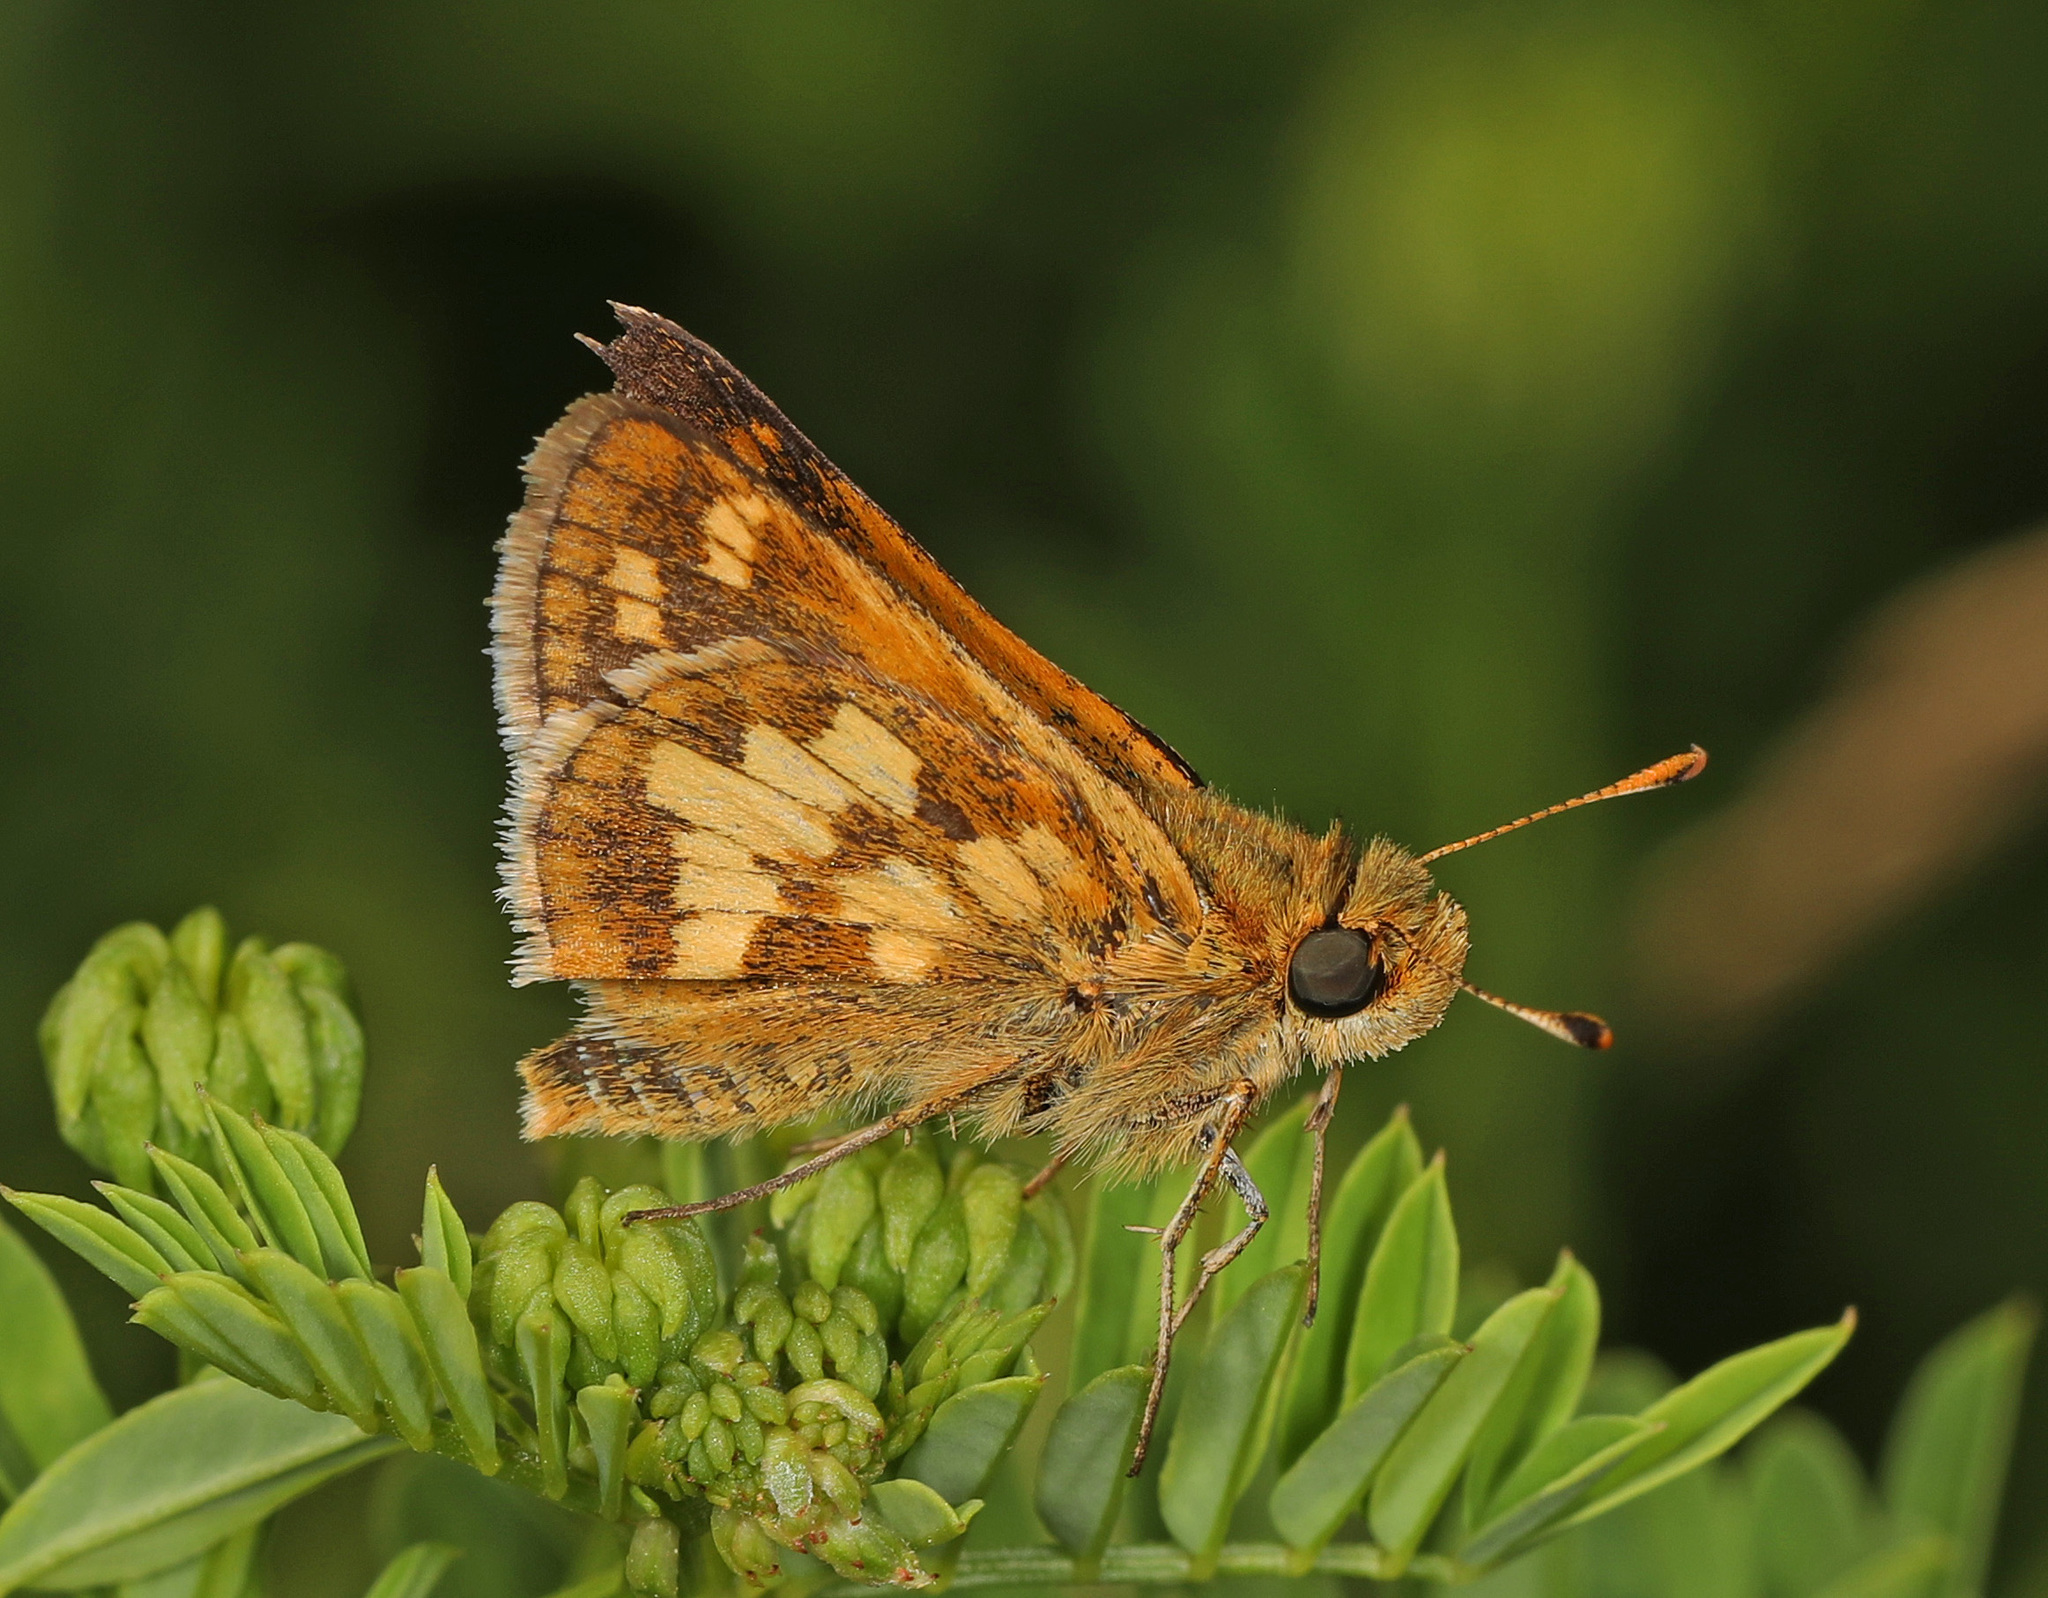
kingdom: Animalia
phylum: Arthropoda
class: Insecta
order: Lepidoptera
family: Hesperiidae
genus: Polites
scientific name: Polites coras
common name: Peck's skipper
